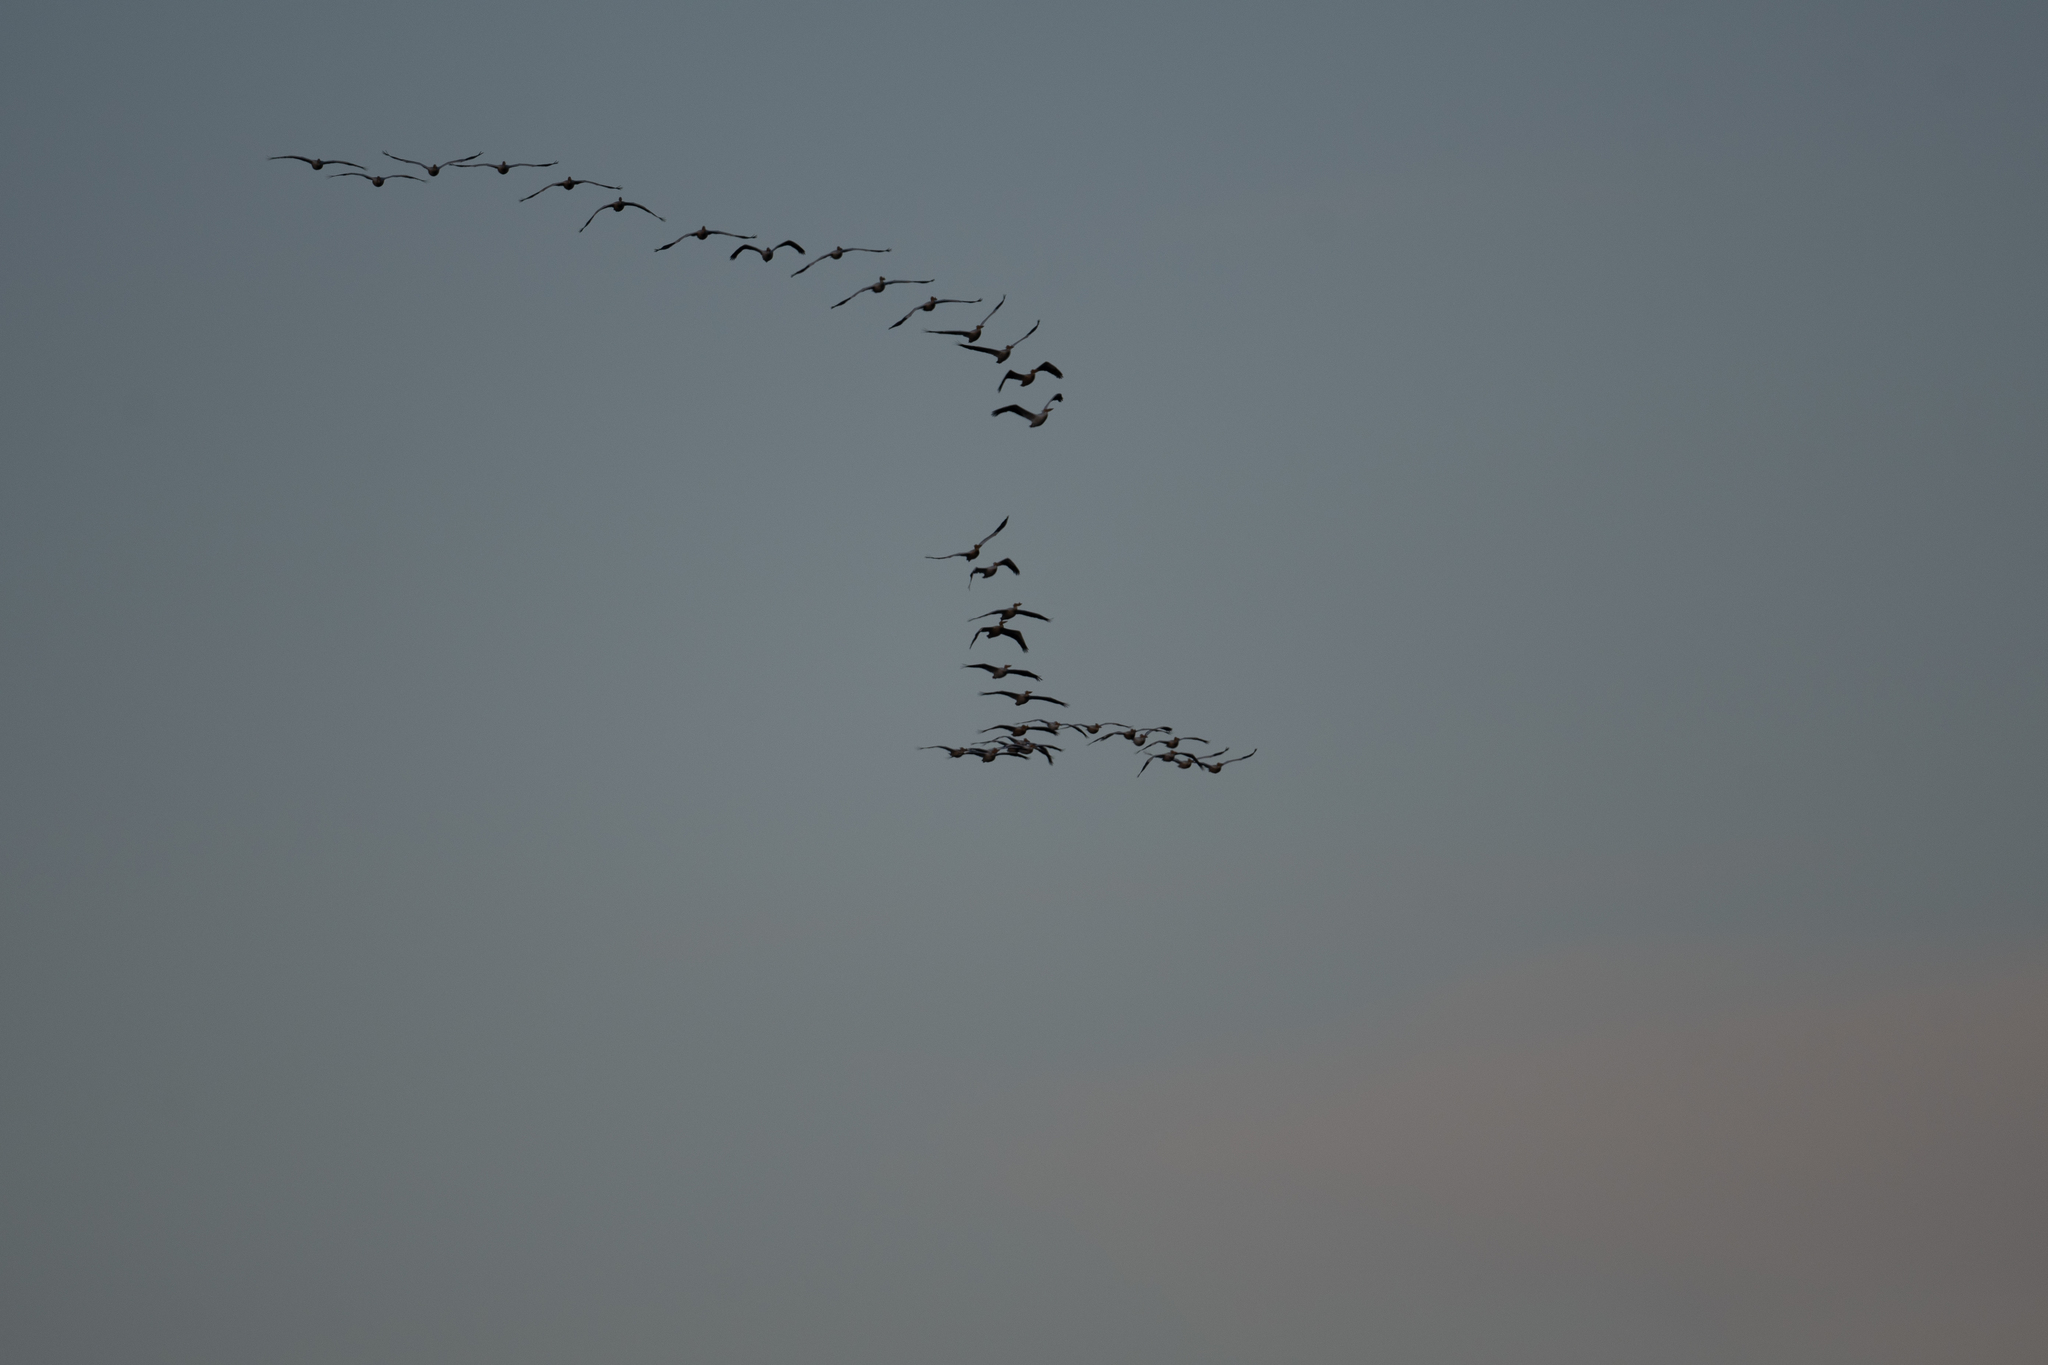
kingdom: Animalia
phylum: Chordata
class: Aves
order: Pelecaniformes
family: Pelecanidae
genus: Pelecanus
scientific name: Pelecanus erythrorhynchos
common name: American white pelican
